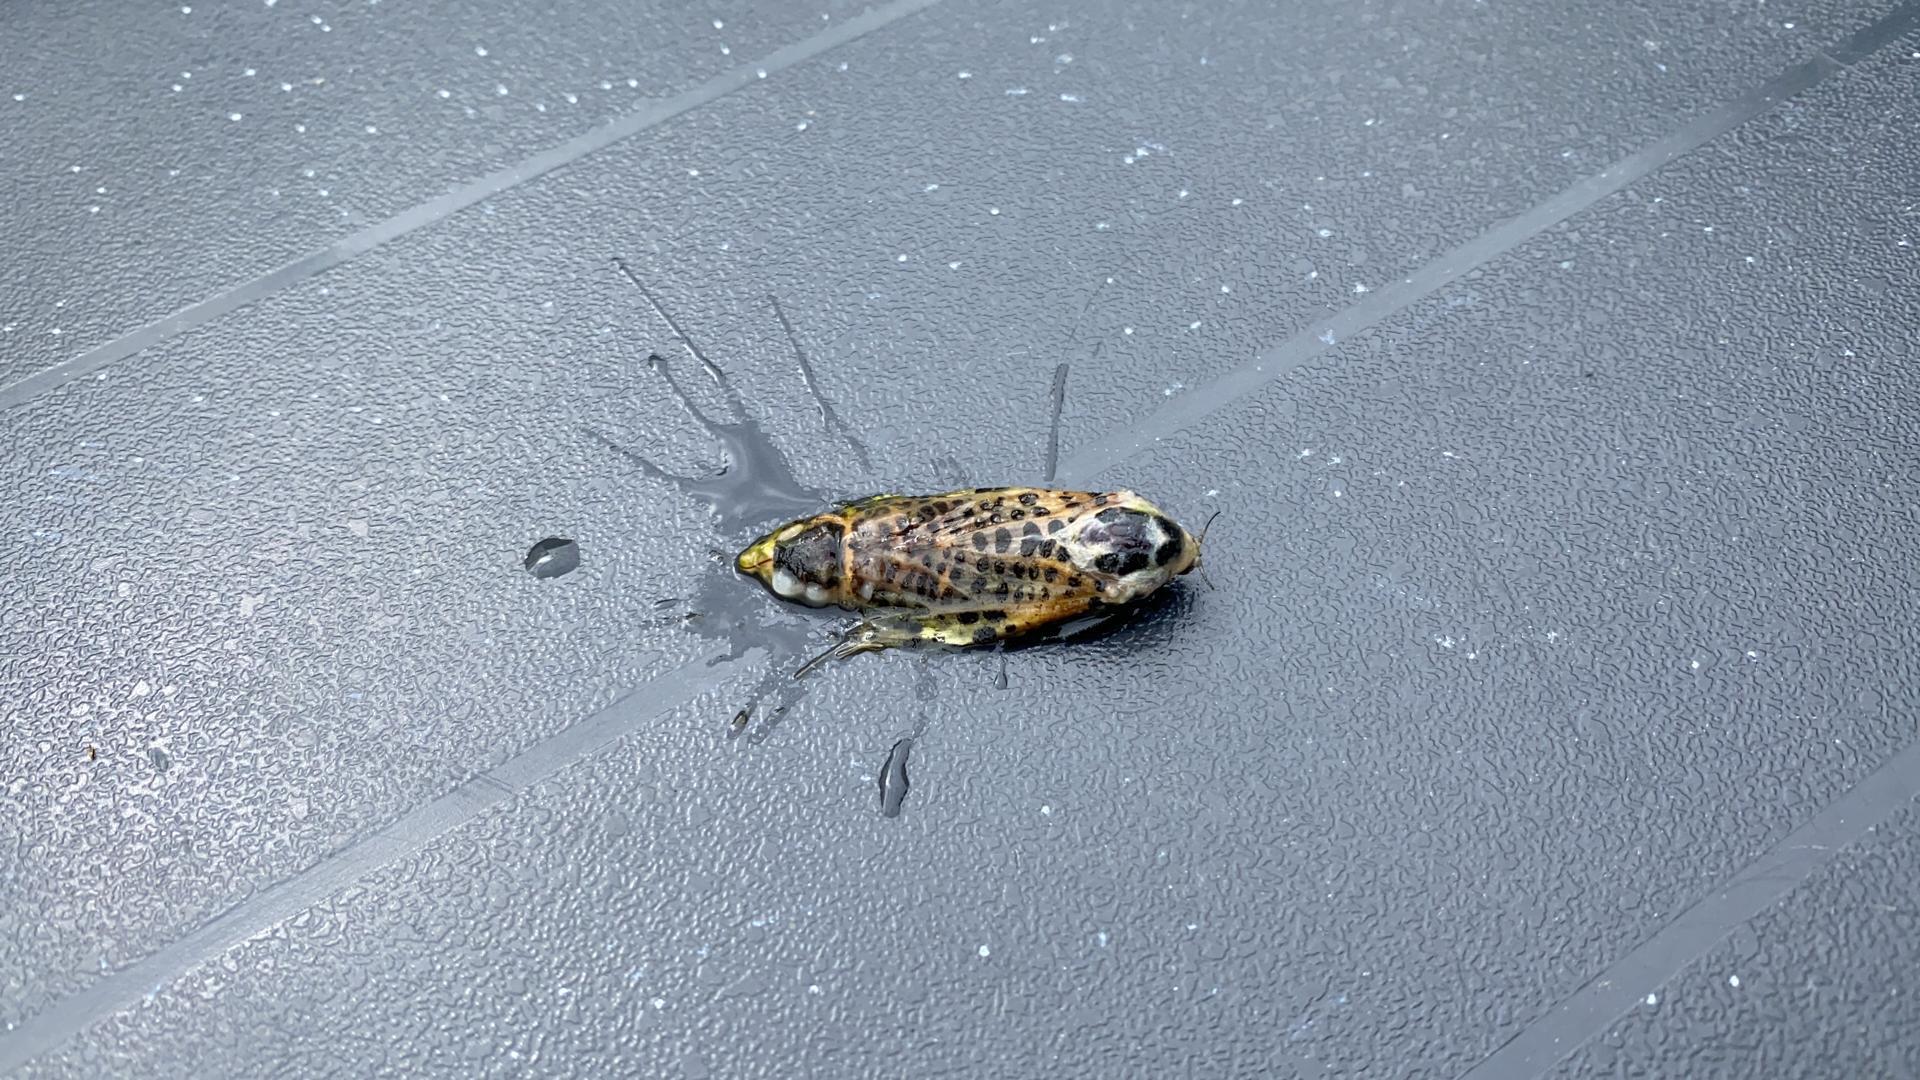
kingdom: Animalia
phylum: Arthropoda
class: Insecta
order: Lepidoptera
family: Cossidae
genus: Zeuzera
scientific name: Zeuzera pyrina
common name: Leopard moth
